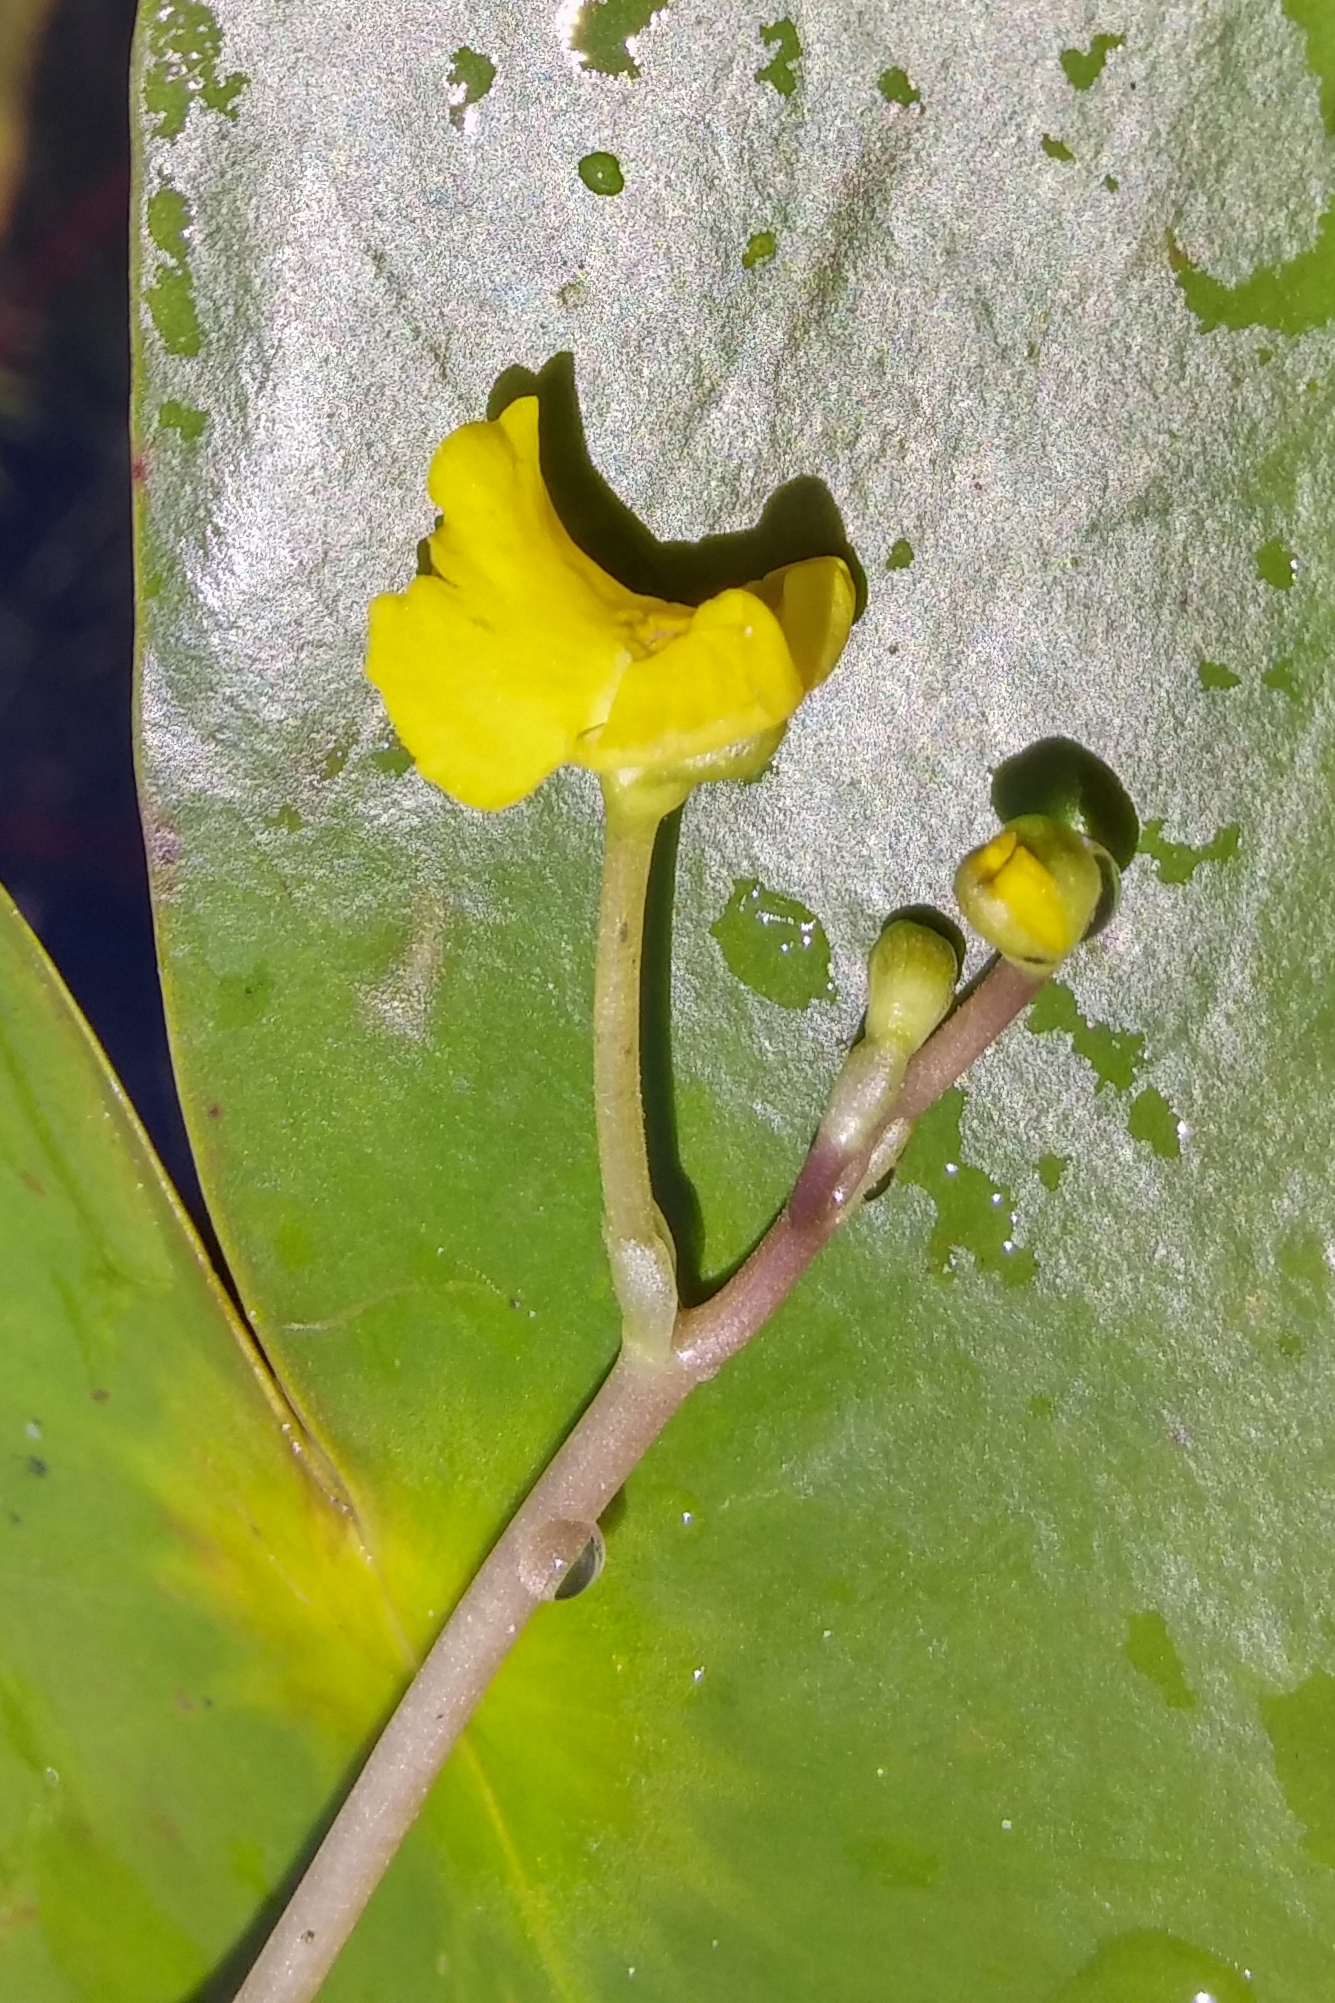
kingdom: Plantae
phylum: Tracheophyta
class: Magnoliopsida
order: Lamiales
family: Lentibulariaceae
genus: Utricularia
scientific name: Utricularia radiata
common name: Floating bladderwort
